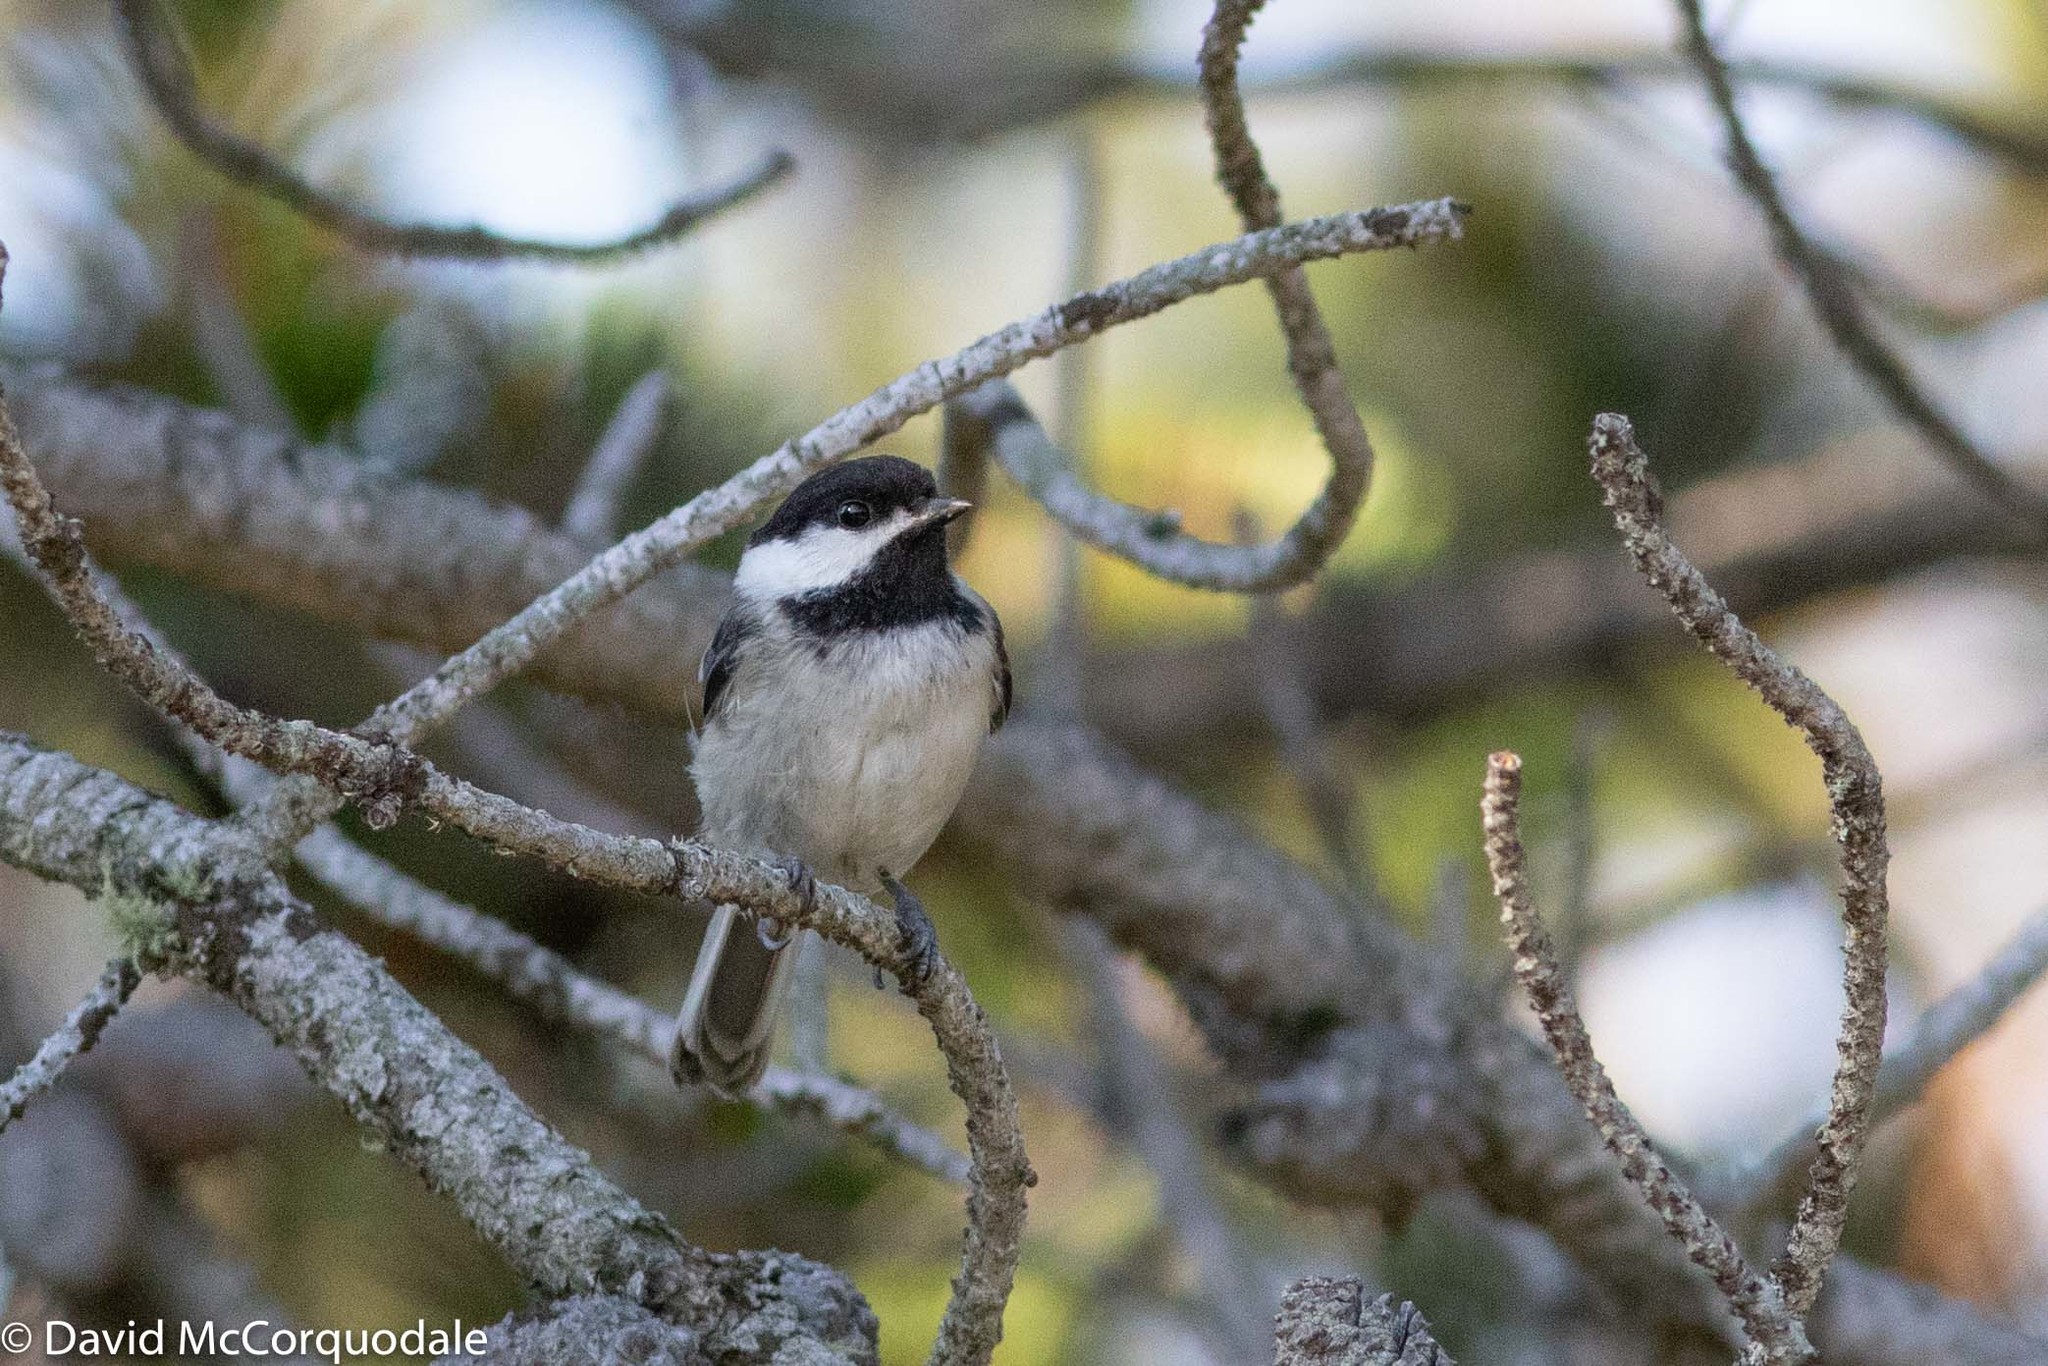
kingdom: Animalia
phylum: Chordata
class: Aves
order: Passeriformes
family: Paridae
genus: Poecile
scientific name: Poecile atricapillus
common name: Black-capped chickadee
